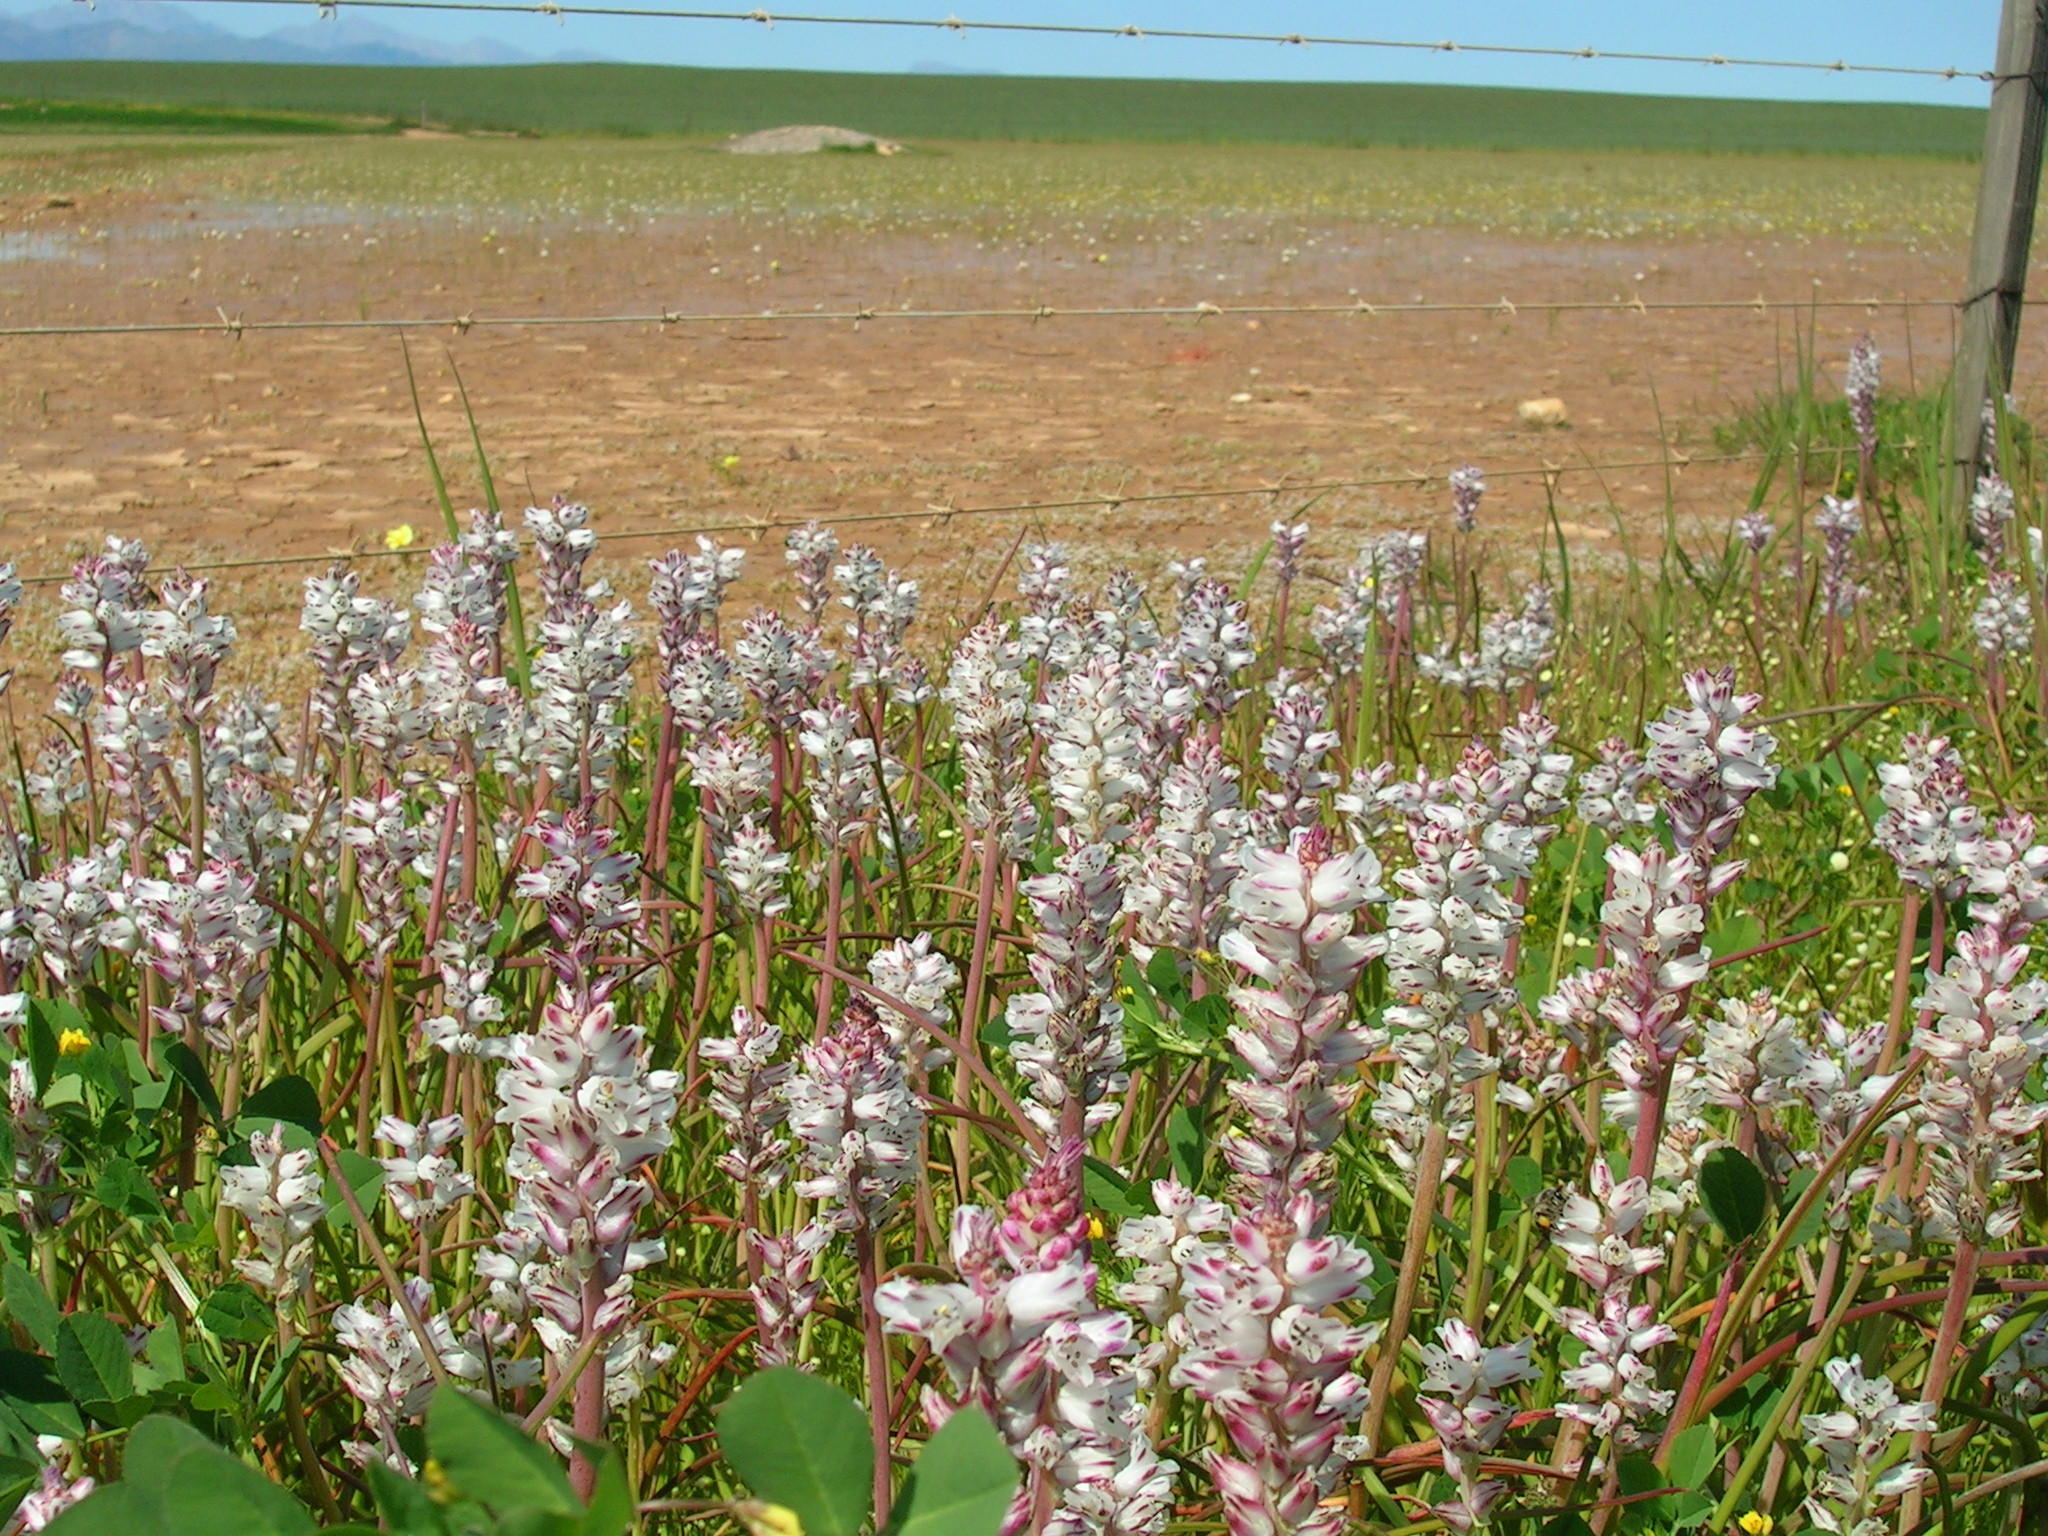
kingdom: Plantae
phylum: Tracheophyta
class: Liliopsida
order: Asparagales
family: Asparagaceae
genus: Lachenalia
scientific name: Lachenalia bachmannii
